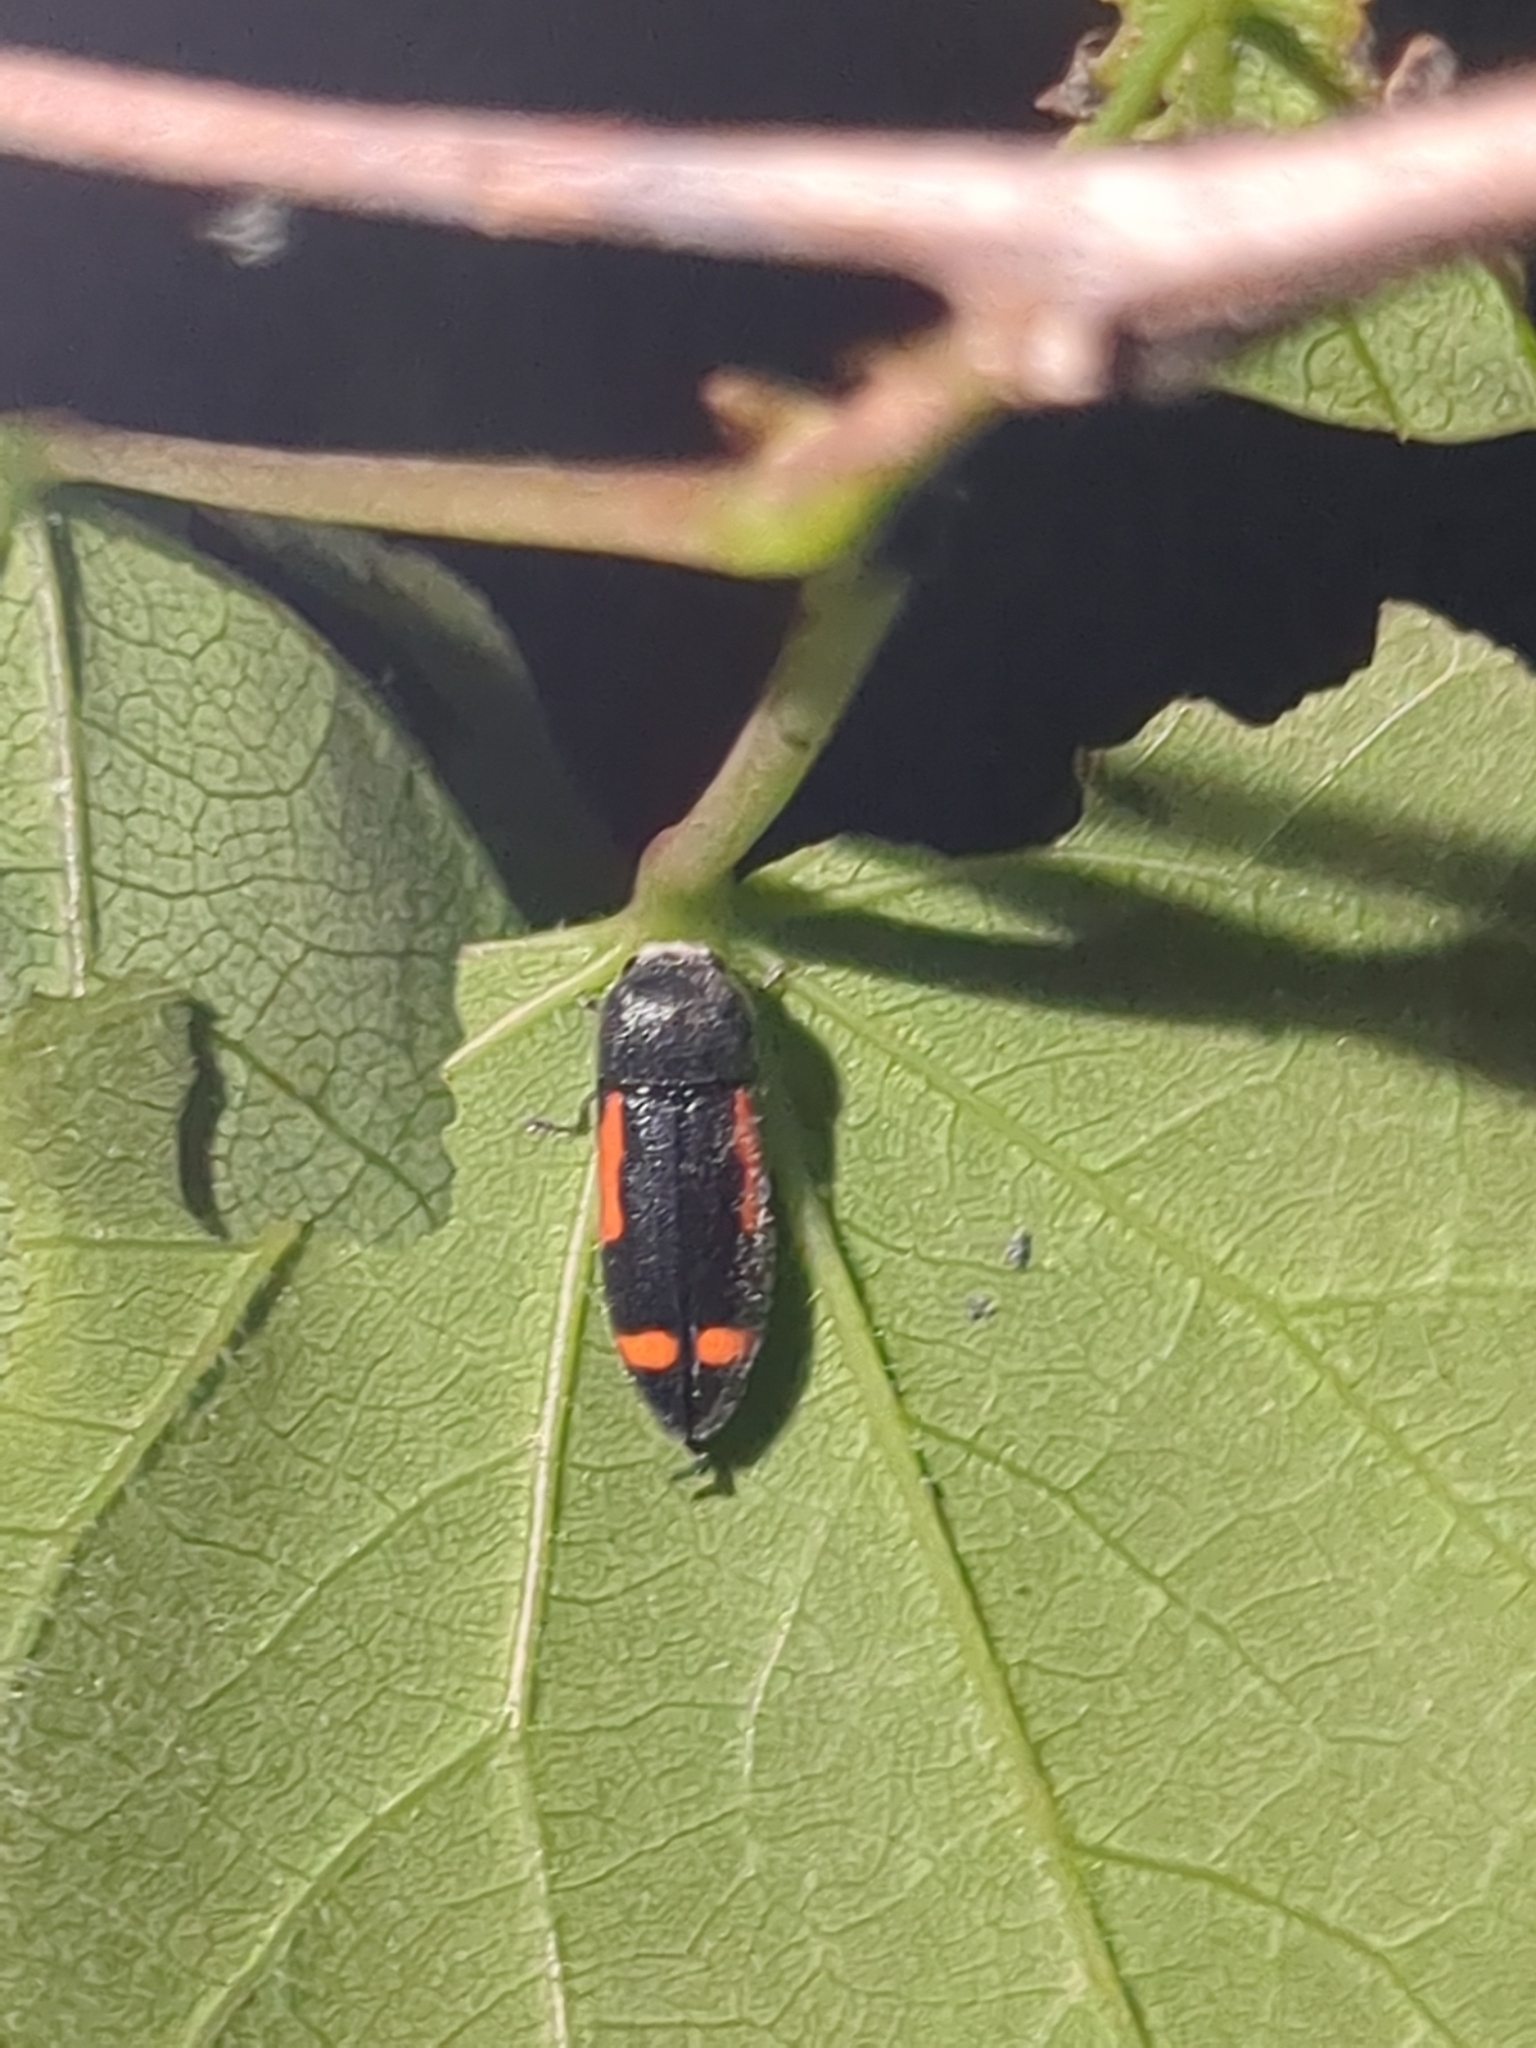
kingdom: Animalia
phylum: Arthropoda
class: Insecta
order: Coleoptera
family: Buprestidae
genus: Ptosima
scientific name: Ptosima laeta
